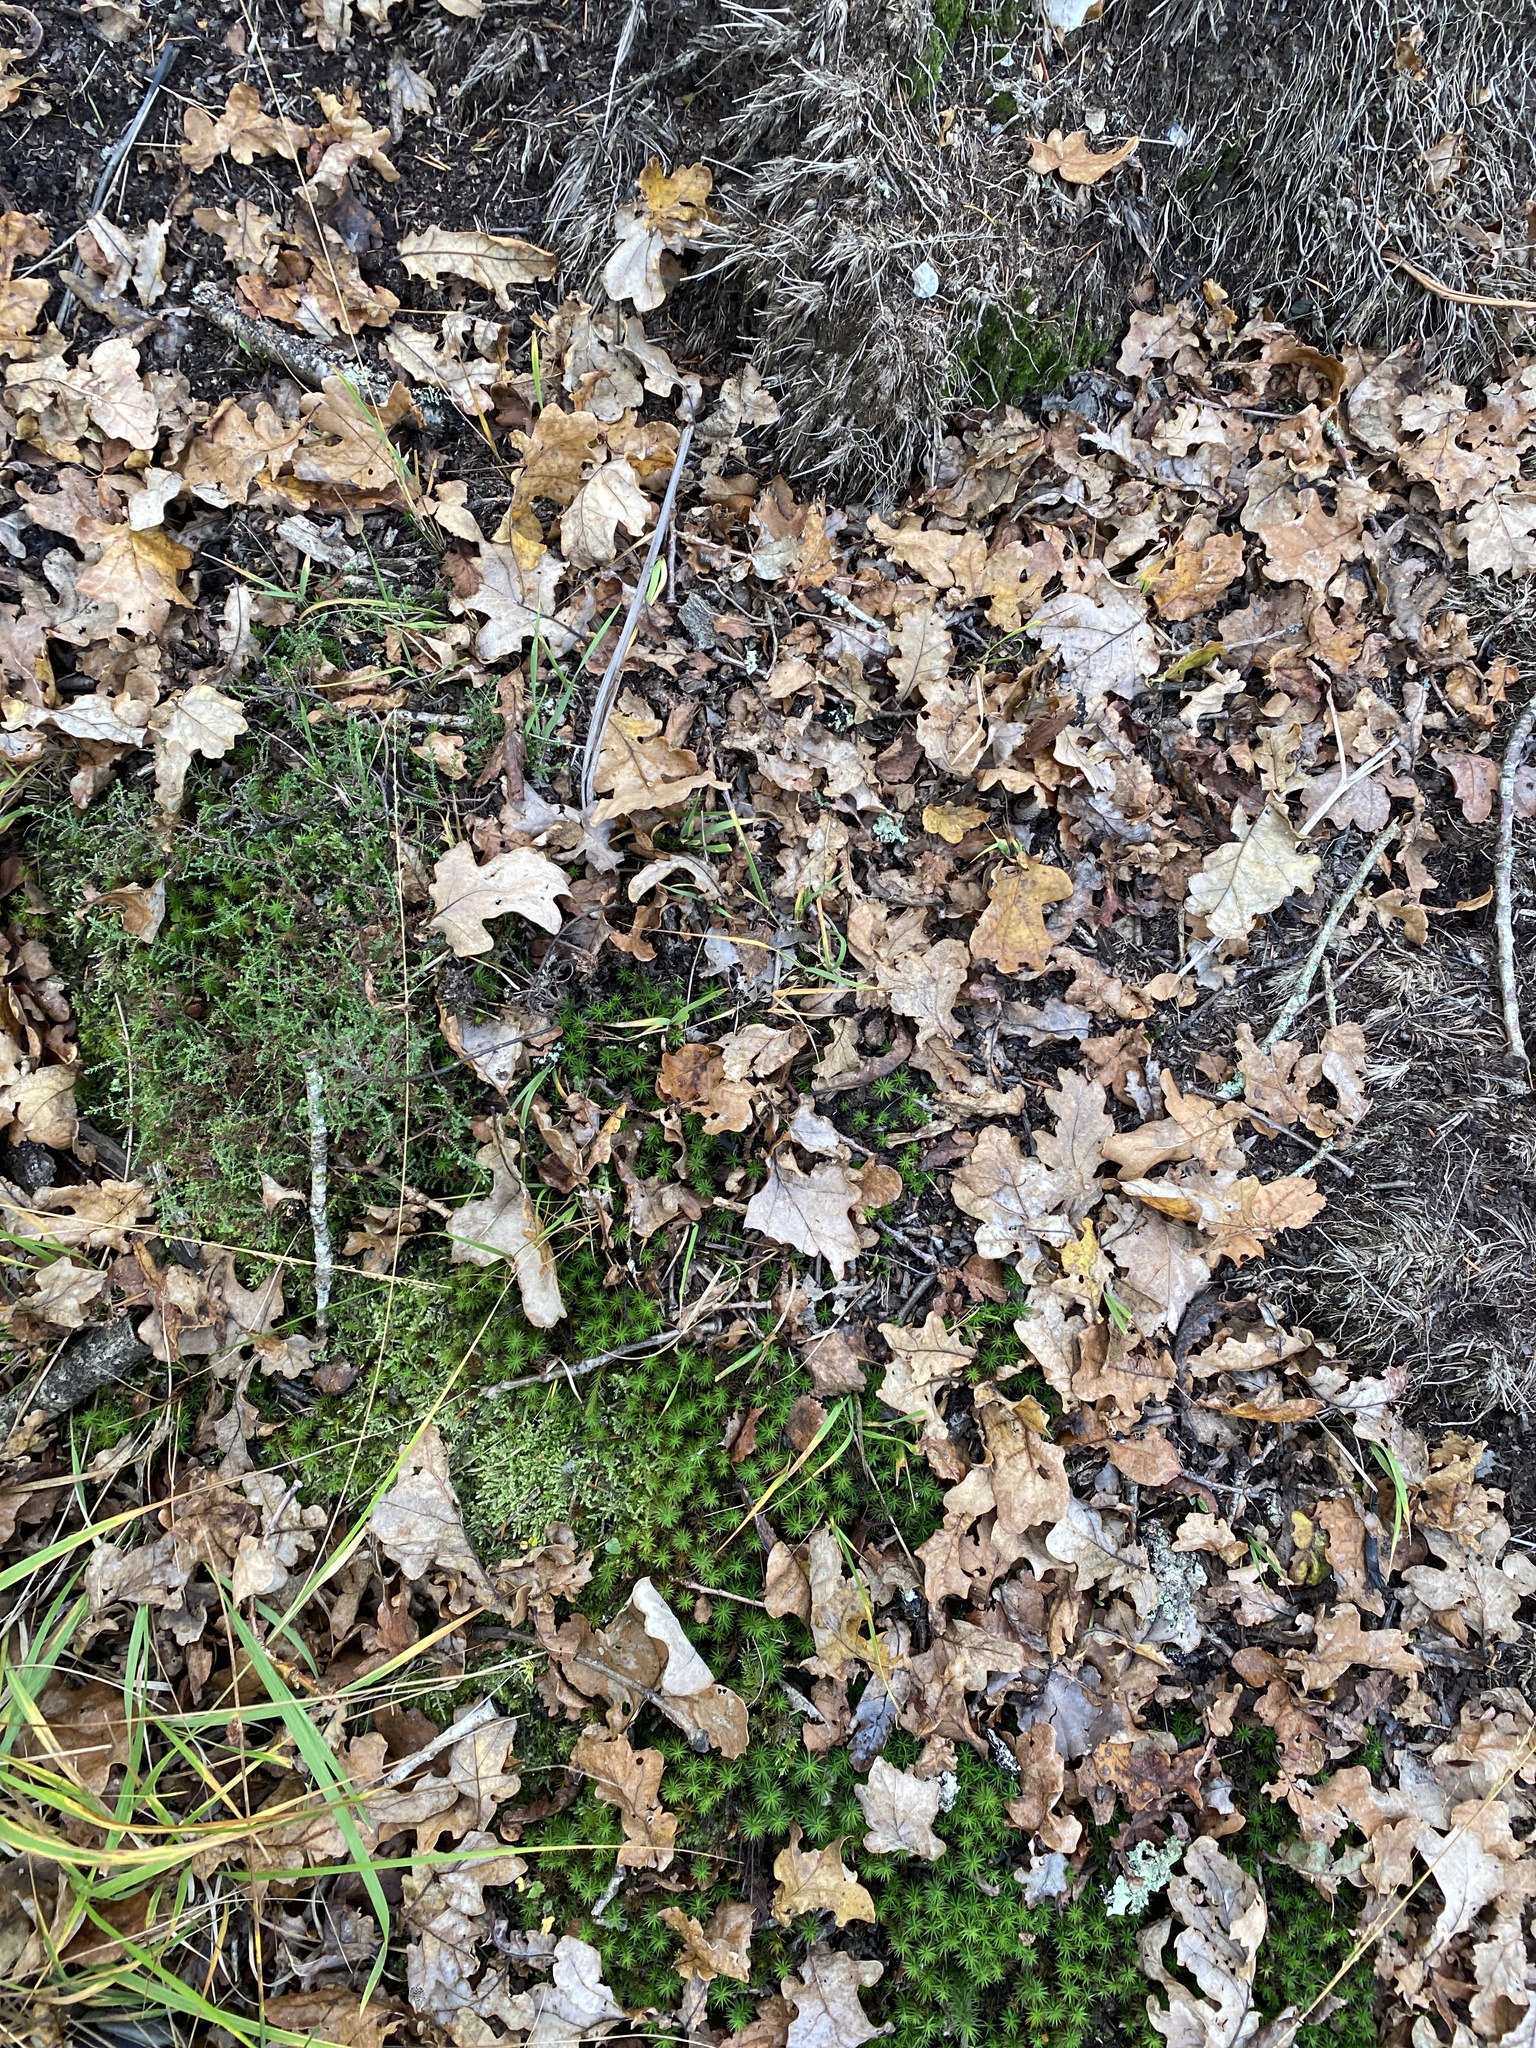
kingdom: Plantae
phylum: Tracheophyta
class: Magnoliopsida
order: Ericales
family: Ericaceae
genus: Calluna
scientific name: Calluna vulgaris
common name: Heather
